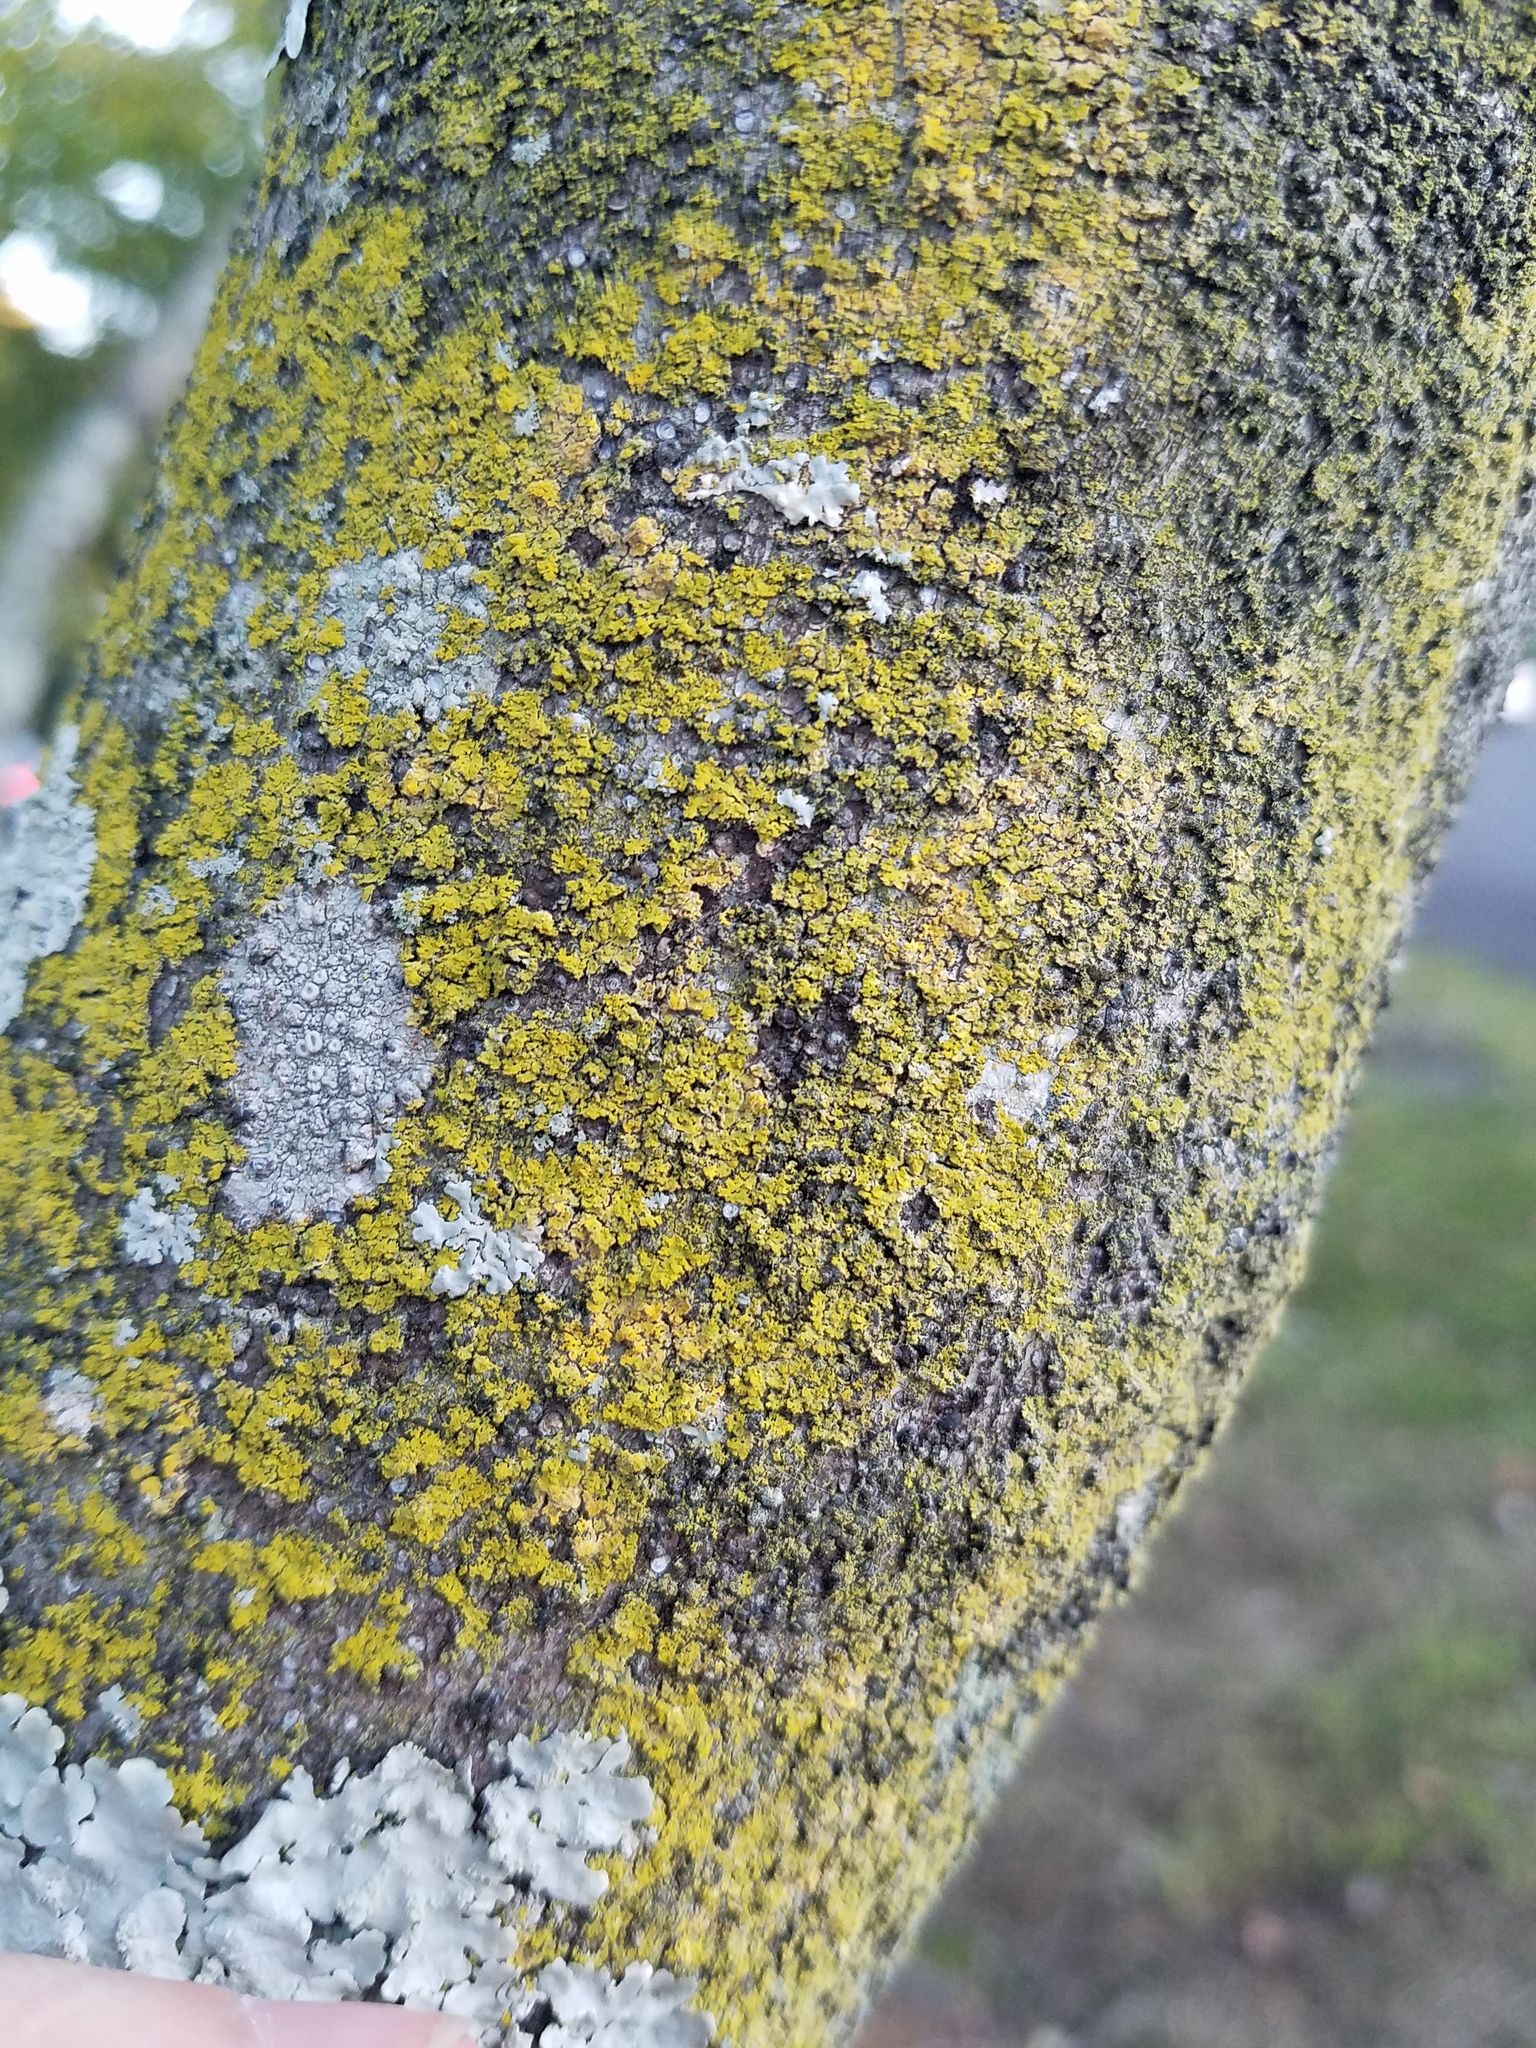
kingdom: Fungi
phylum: Ascomycota
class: Candelariomycetes
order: Candelariales
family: Candelariaceae
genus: Candelaria
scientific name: Candelaria concolor
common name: Candleflame lichen
